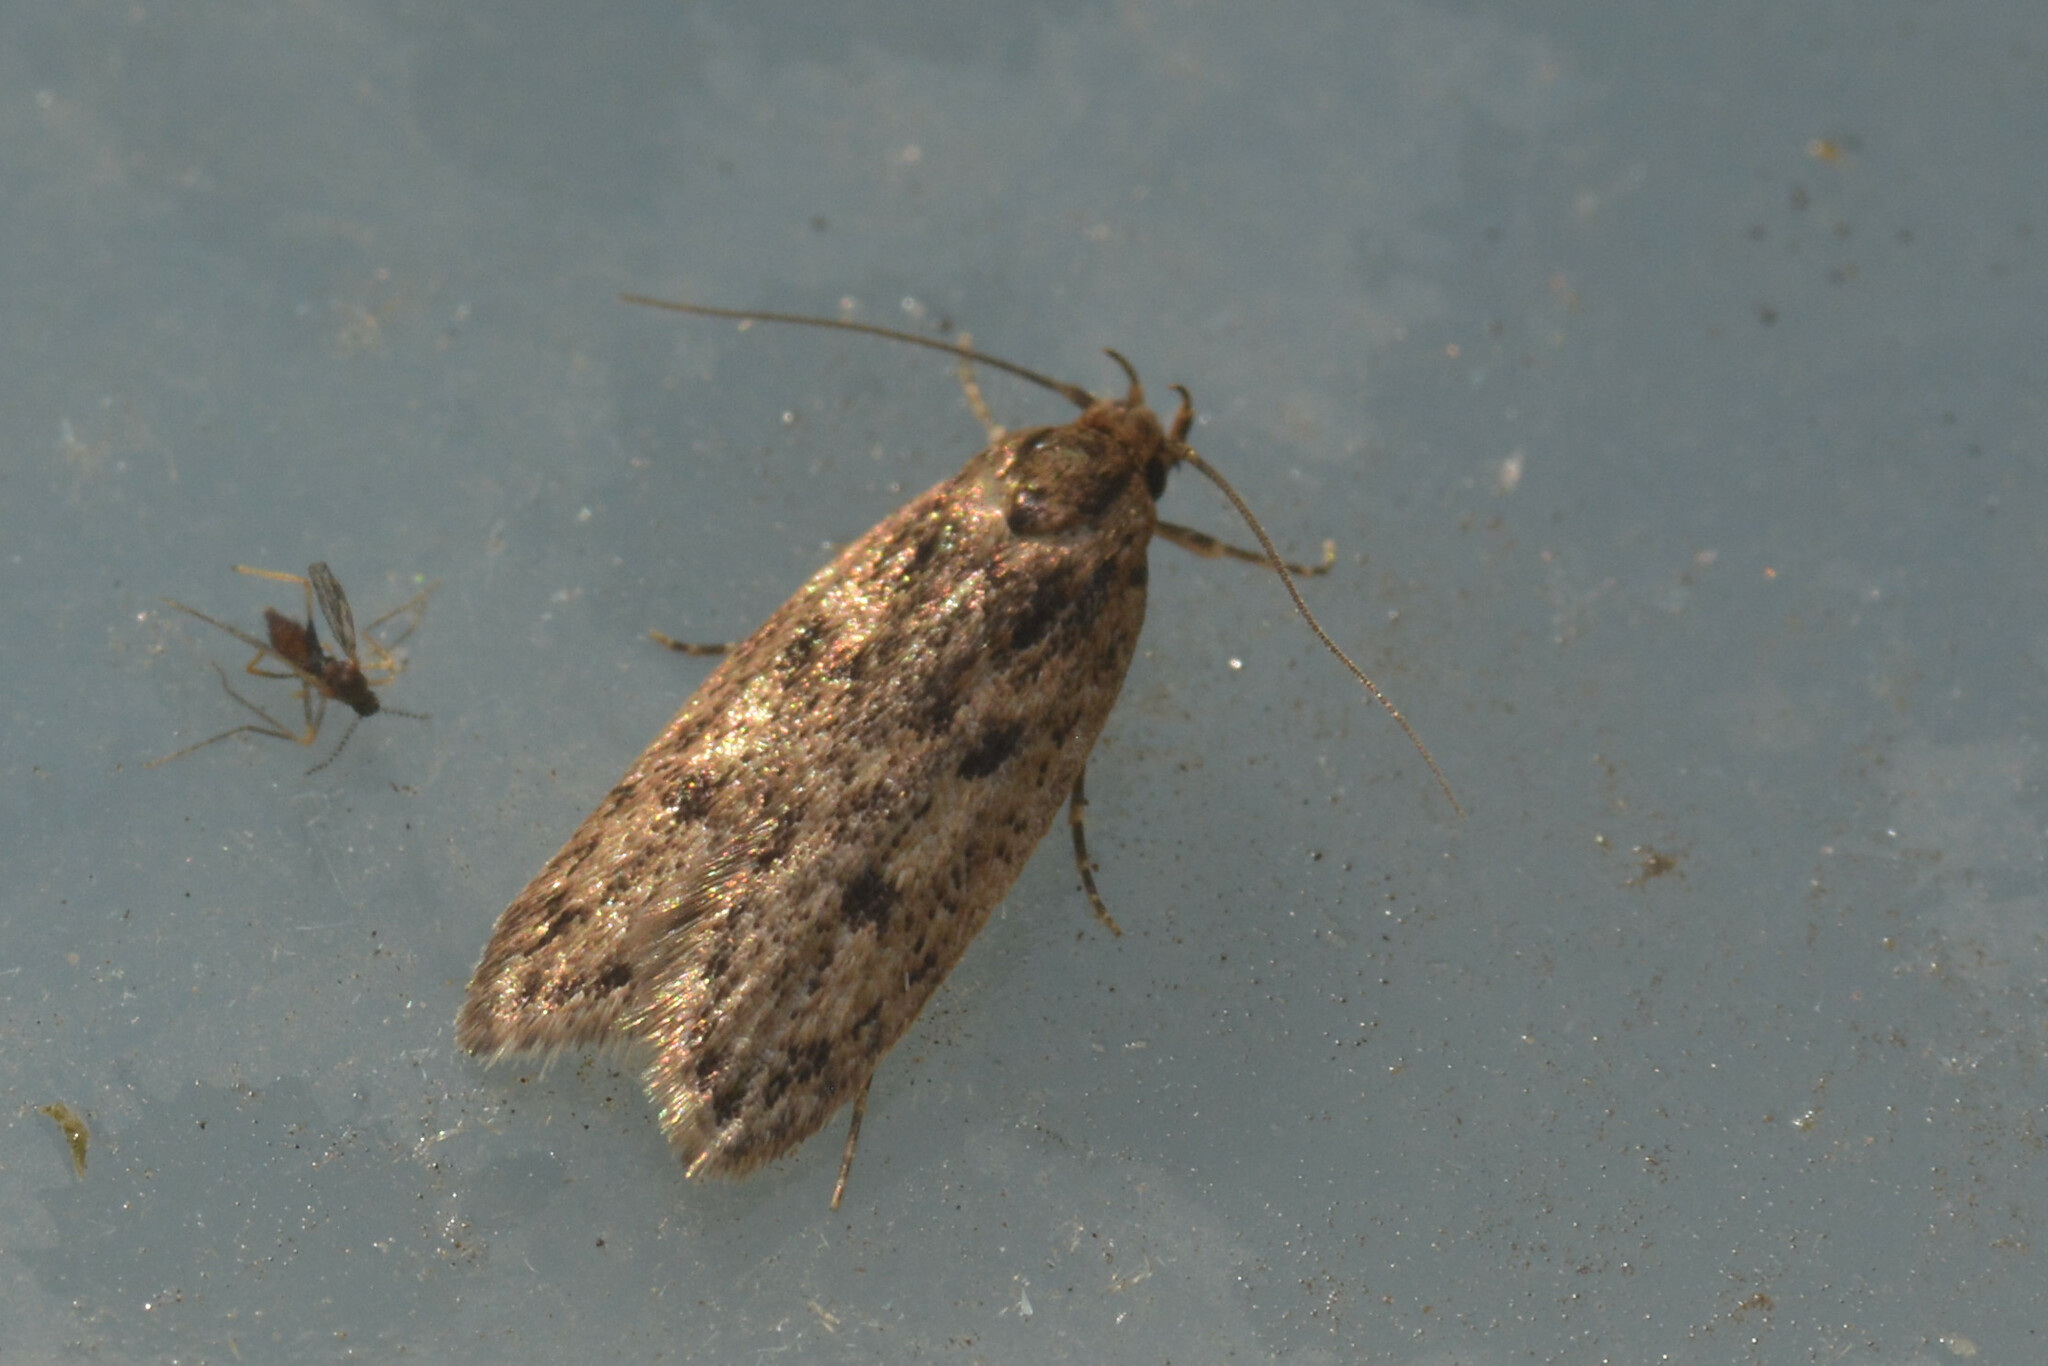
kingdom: Animalia
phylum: Arthropoda
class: Insecta
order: Lepidoptera
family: Oecophoridae
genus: Hofmannophila
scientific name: Hofmannophila pseudospretella
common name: Brown house moth
